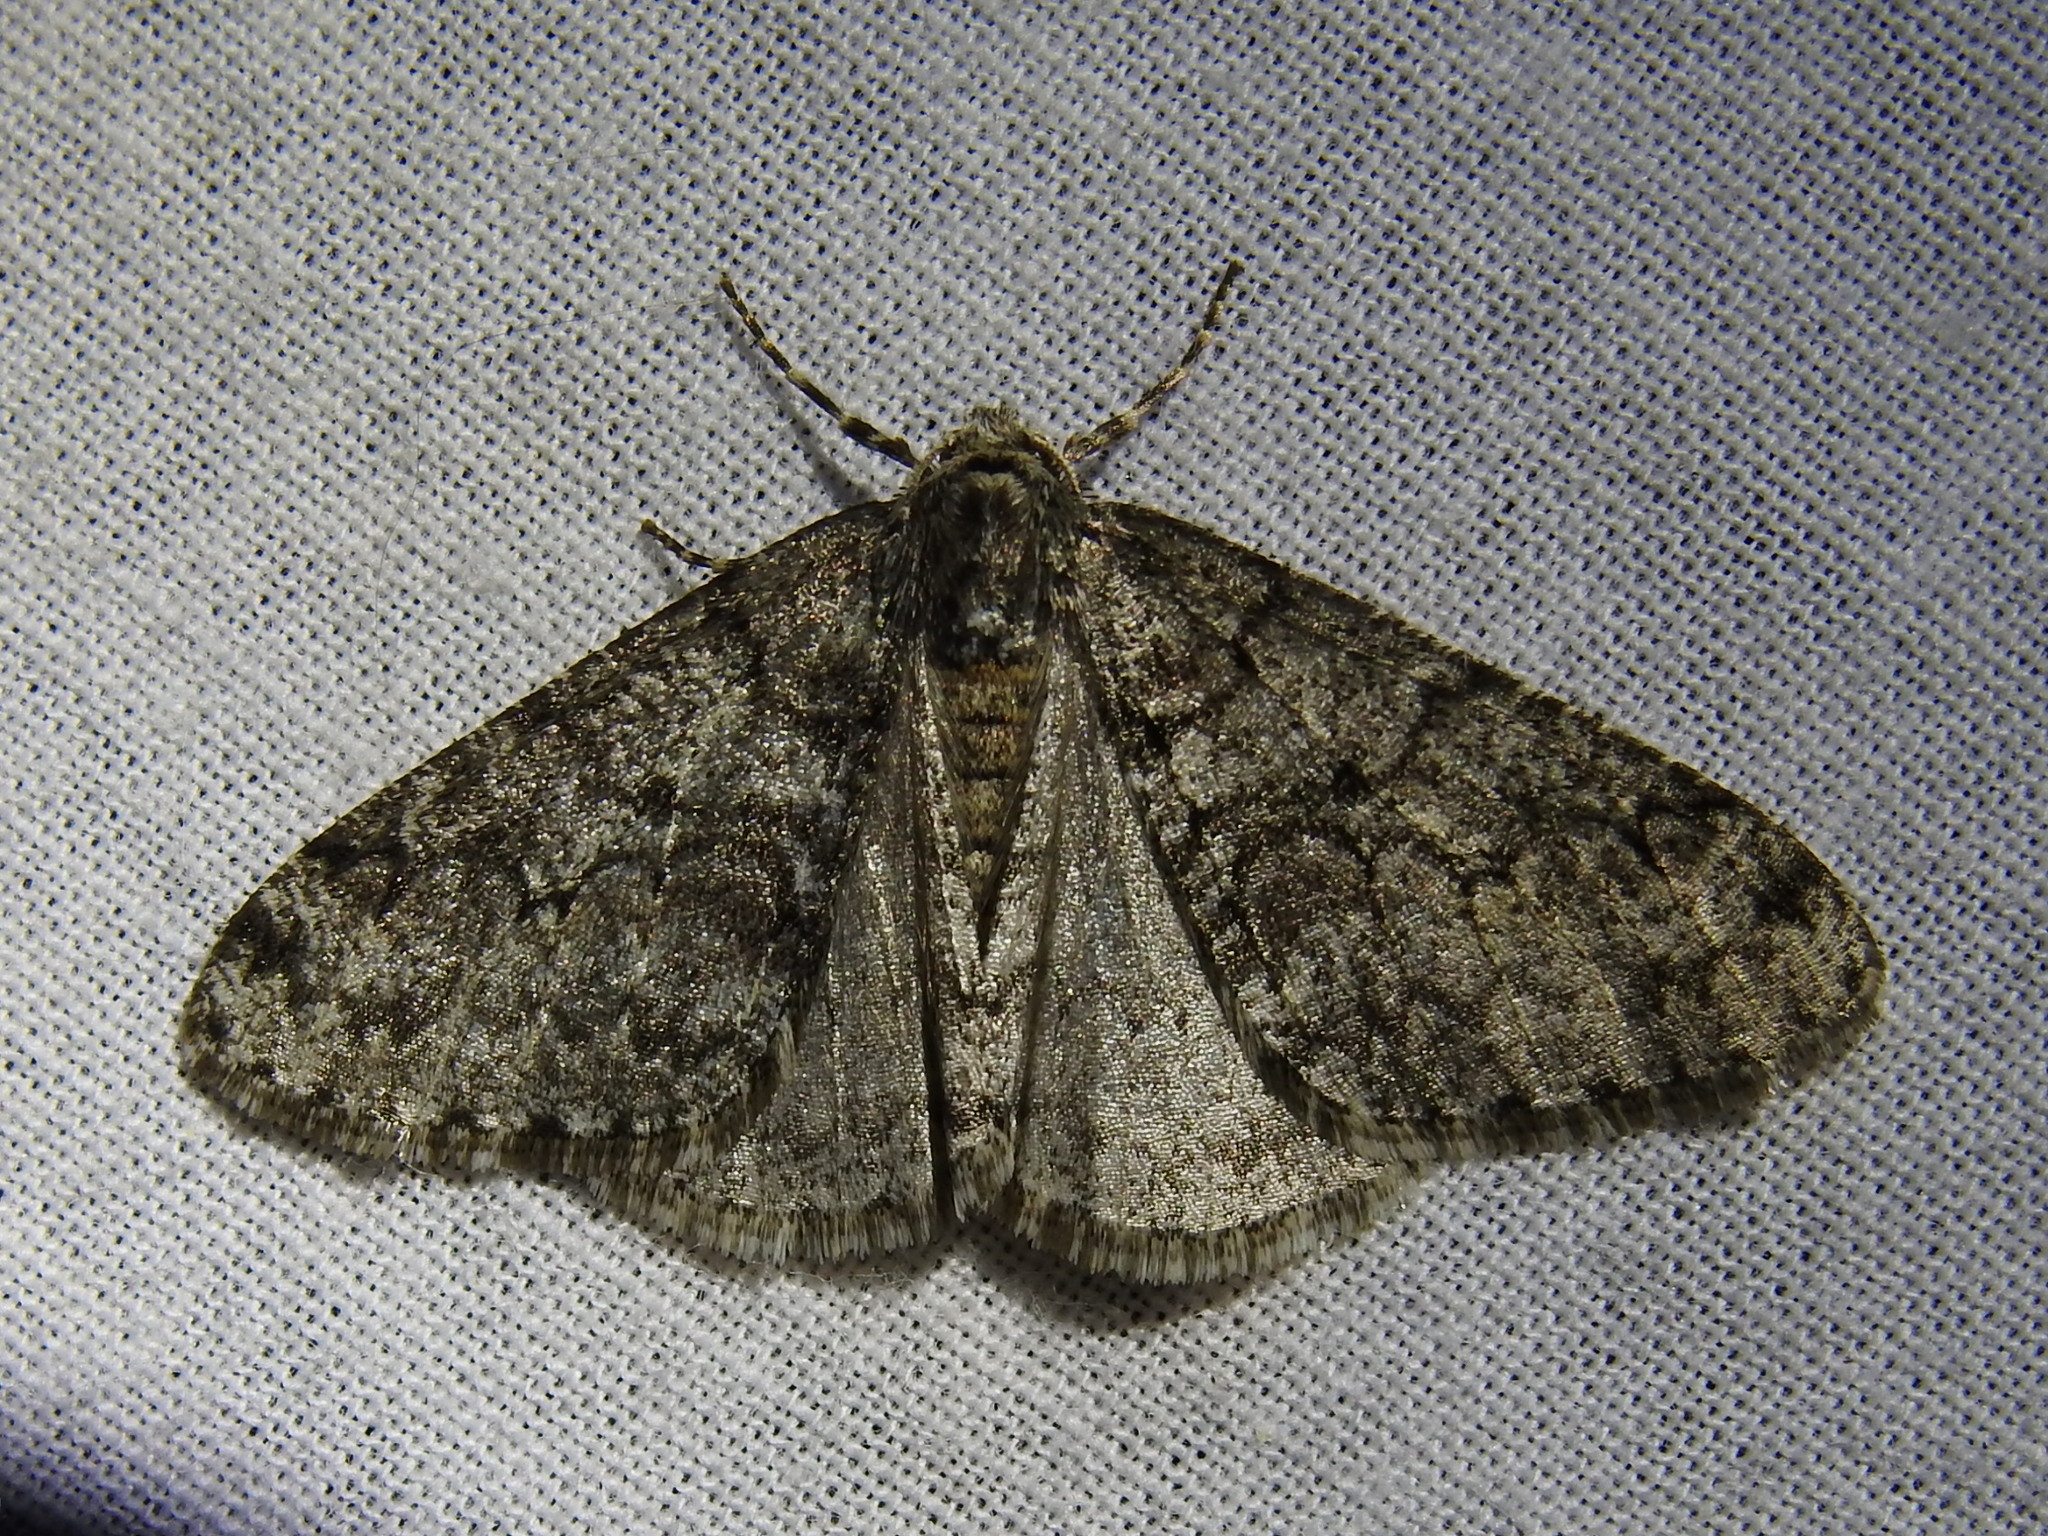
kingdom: Animalia
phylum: Arthropoda
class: Insecta
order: Lepidoptera
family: Geometridae
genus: Phigalia
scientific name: Phigalia denticulata
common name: Toothed phigalia
